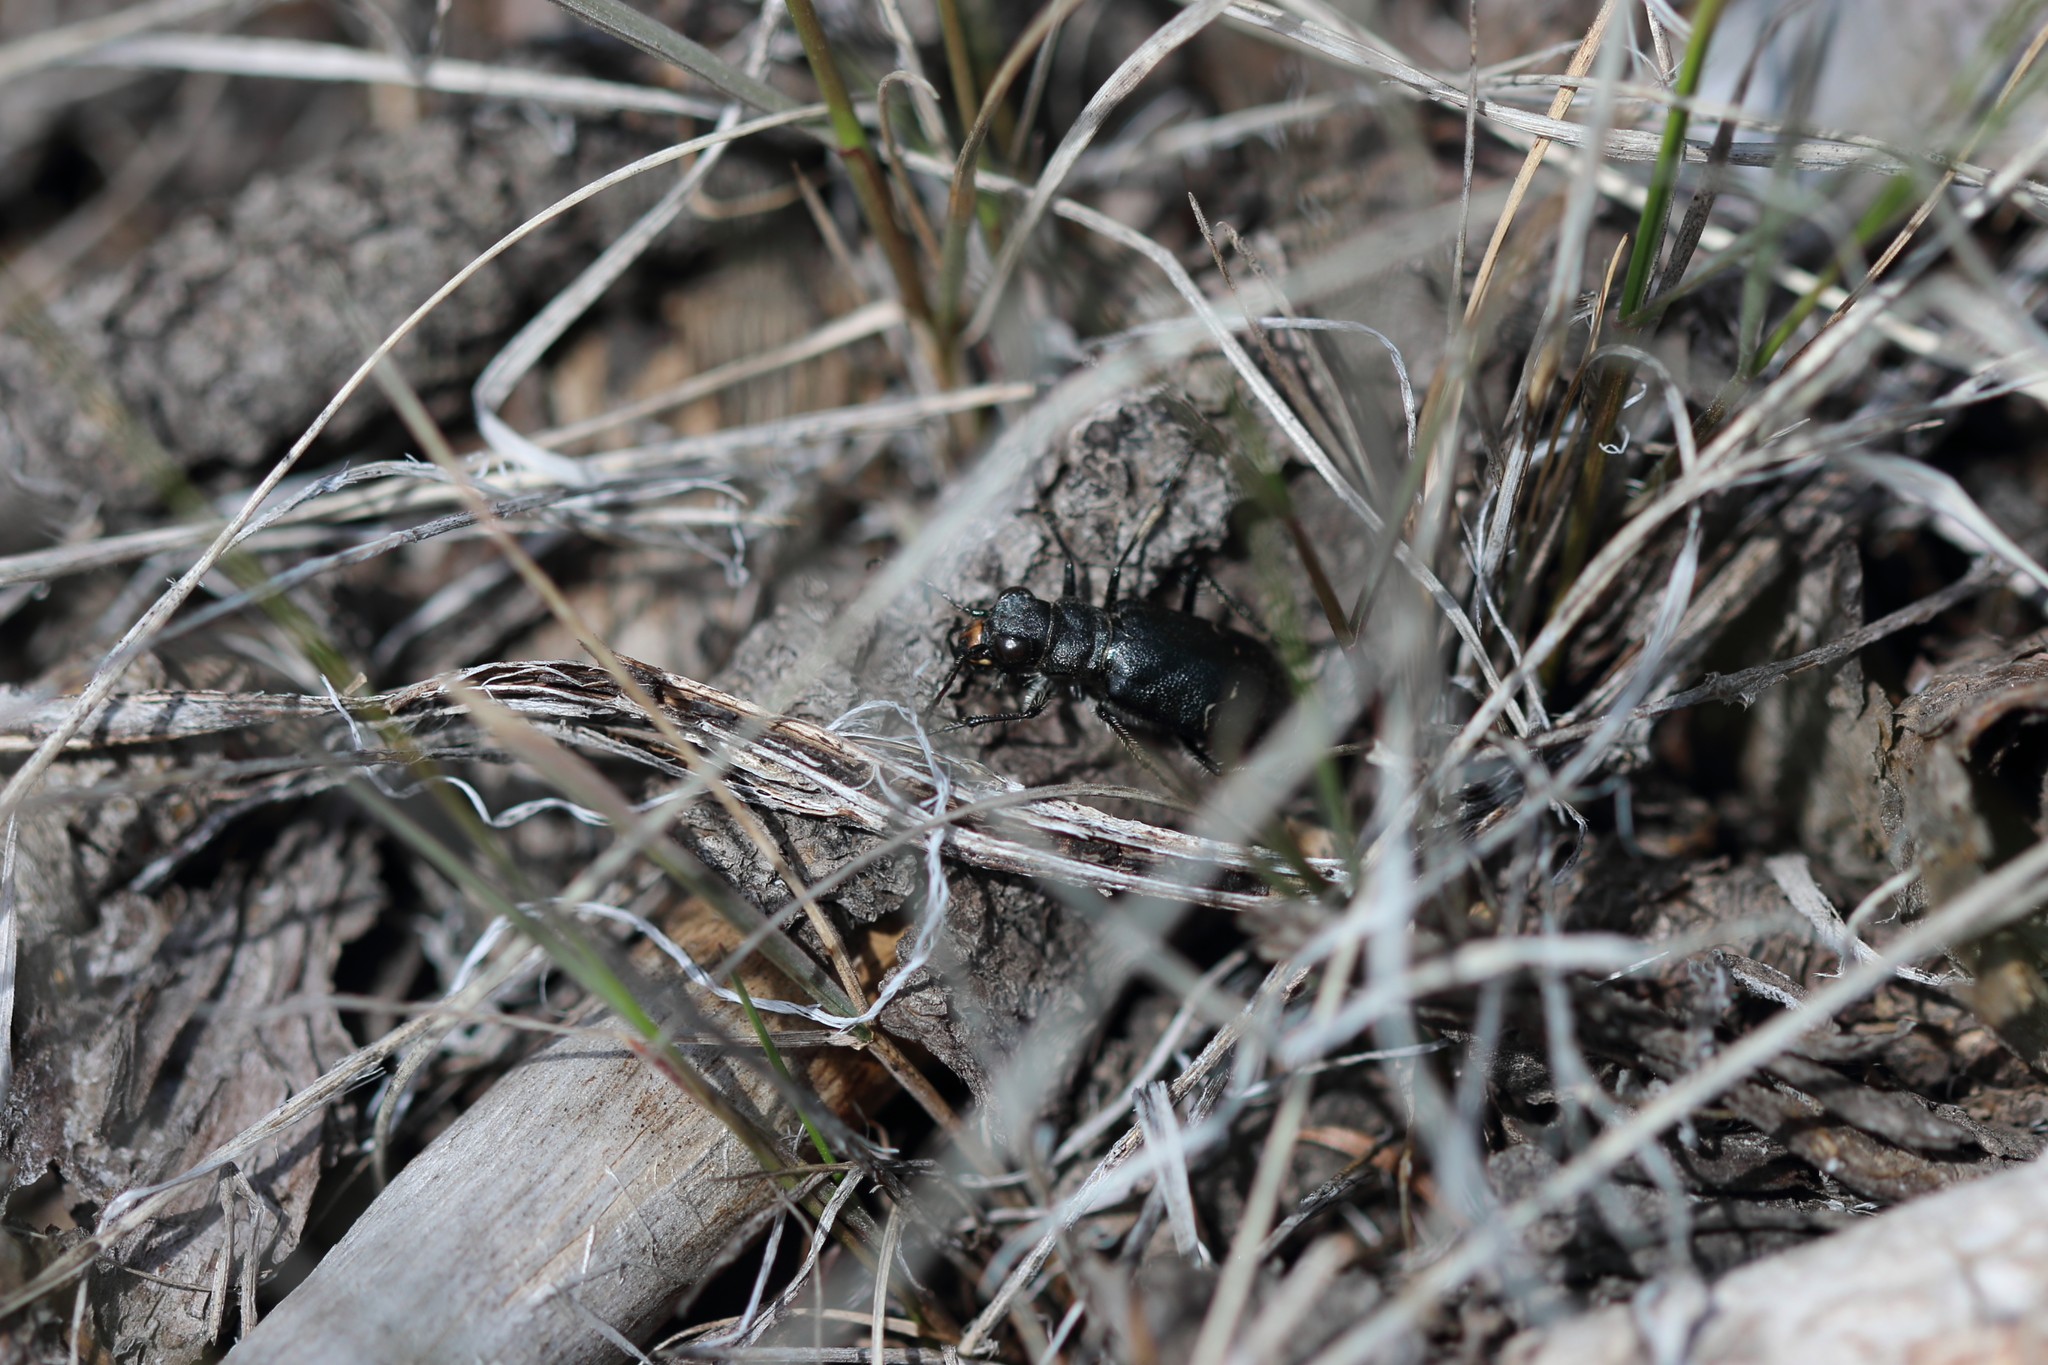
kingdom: Animalia
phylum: Arthropoda
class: Insecta
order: Coleoptera
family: Carabidae
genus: Cicindela
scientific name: Cicindela longilabris
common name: Boreal long-lipped tiger beetle
